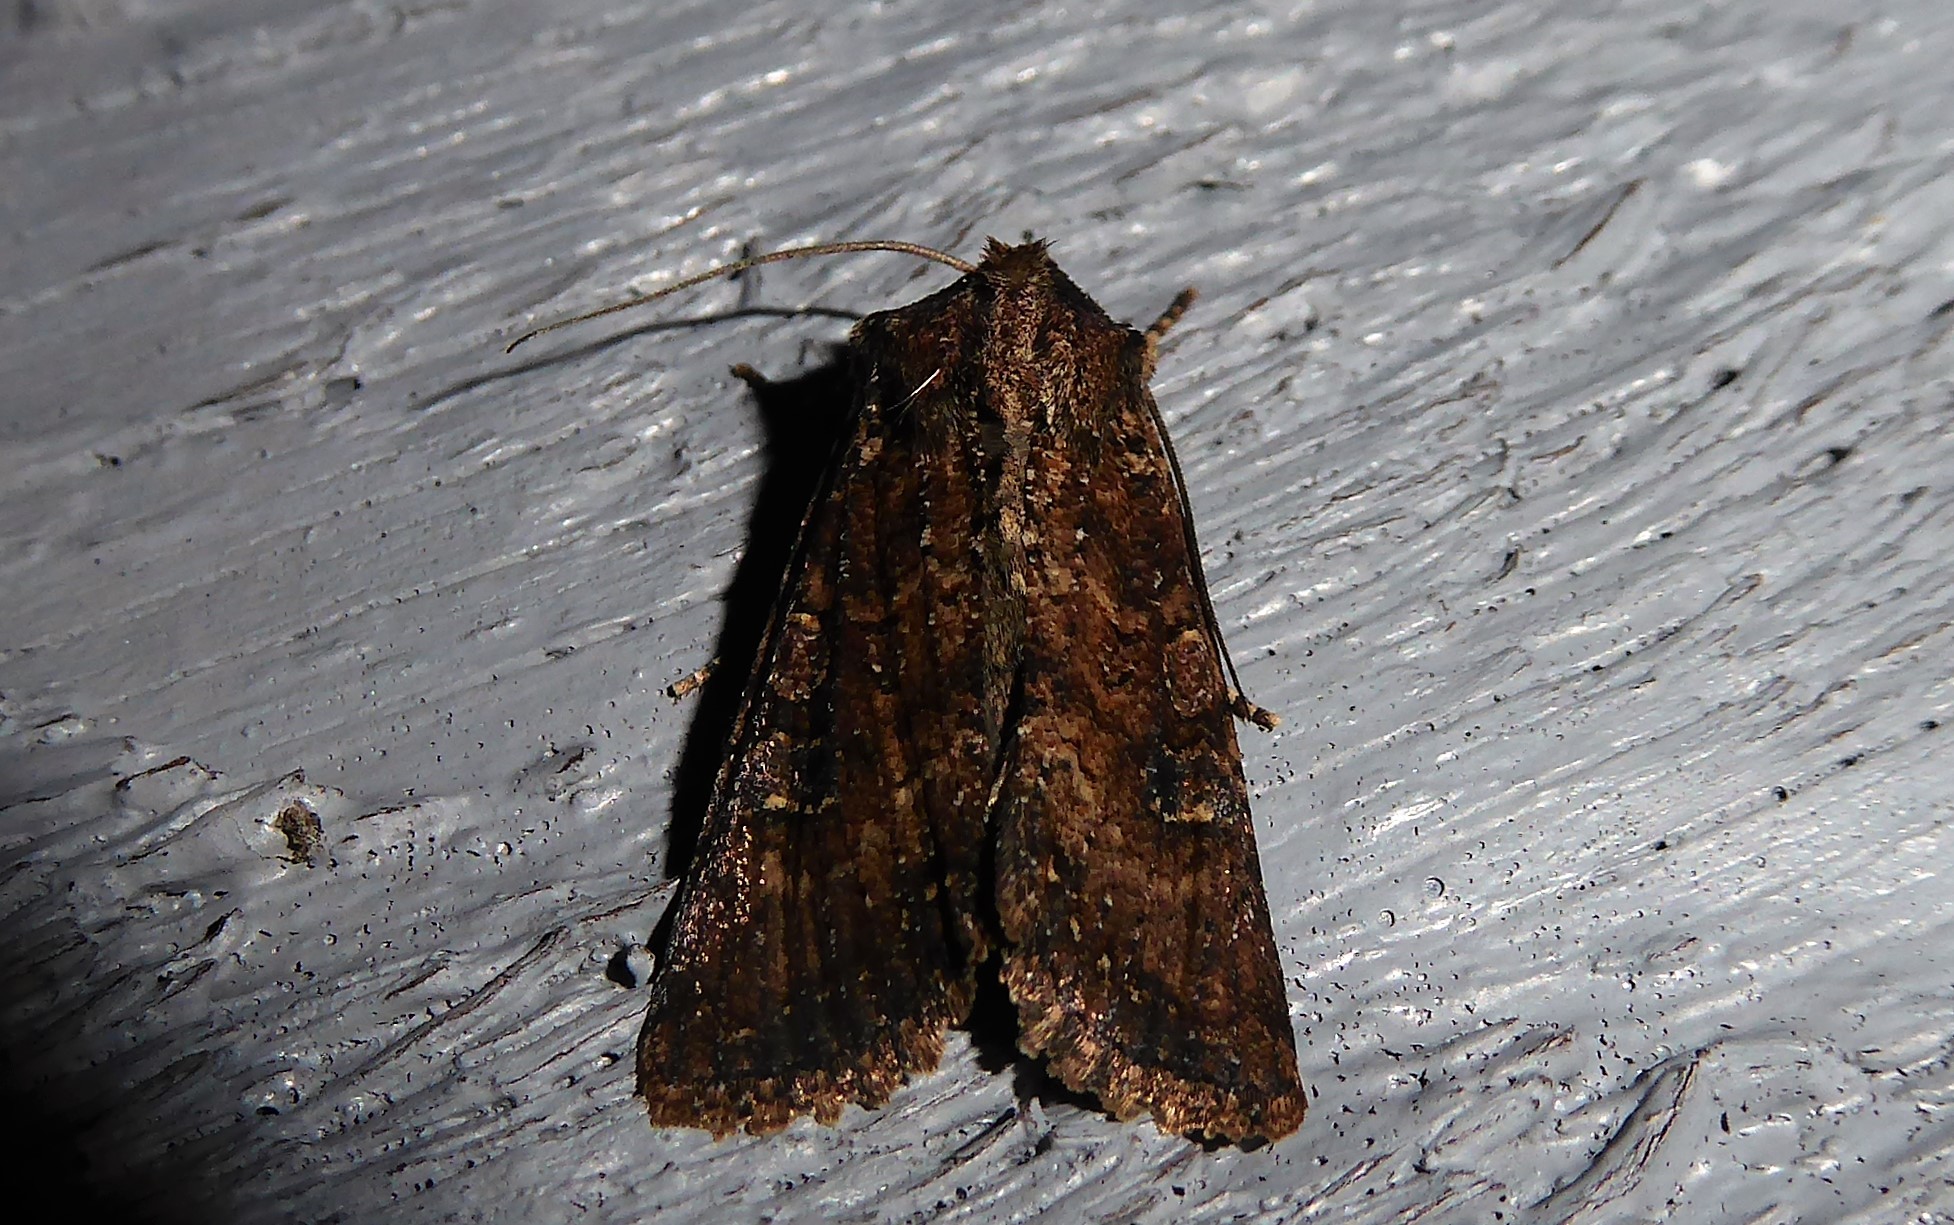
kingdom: Animalia
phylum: Arthropoda
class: Insecta
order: Lepidoptera
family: Noctuidae
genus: Ichneutica
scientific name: Ichneutica morosa
